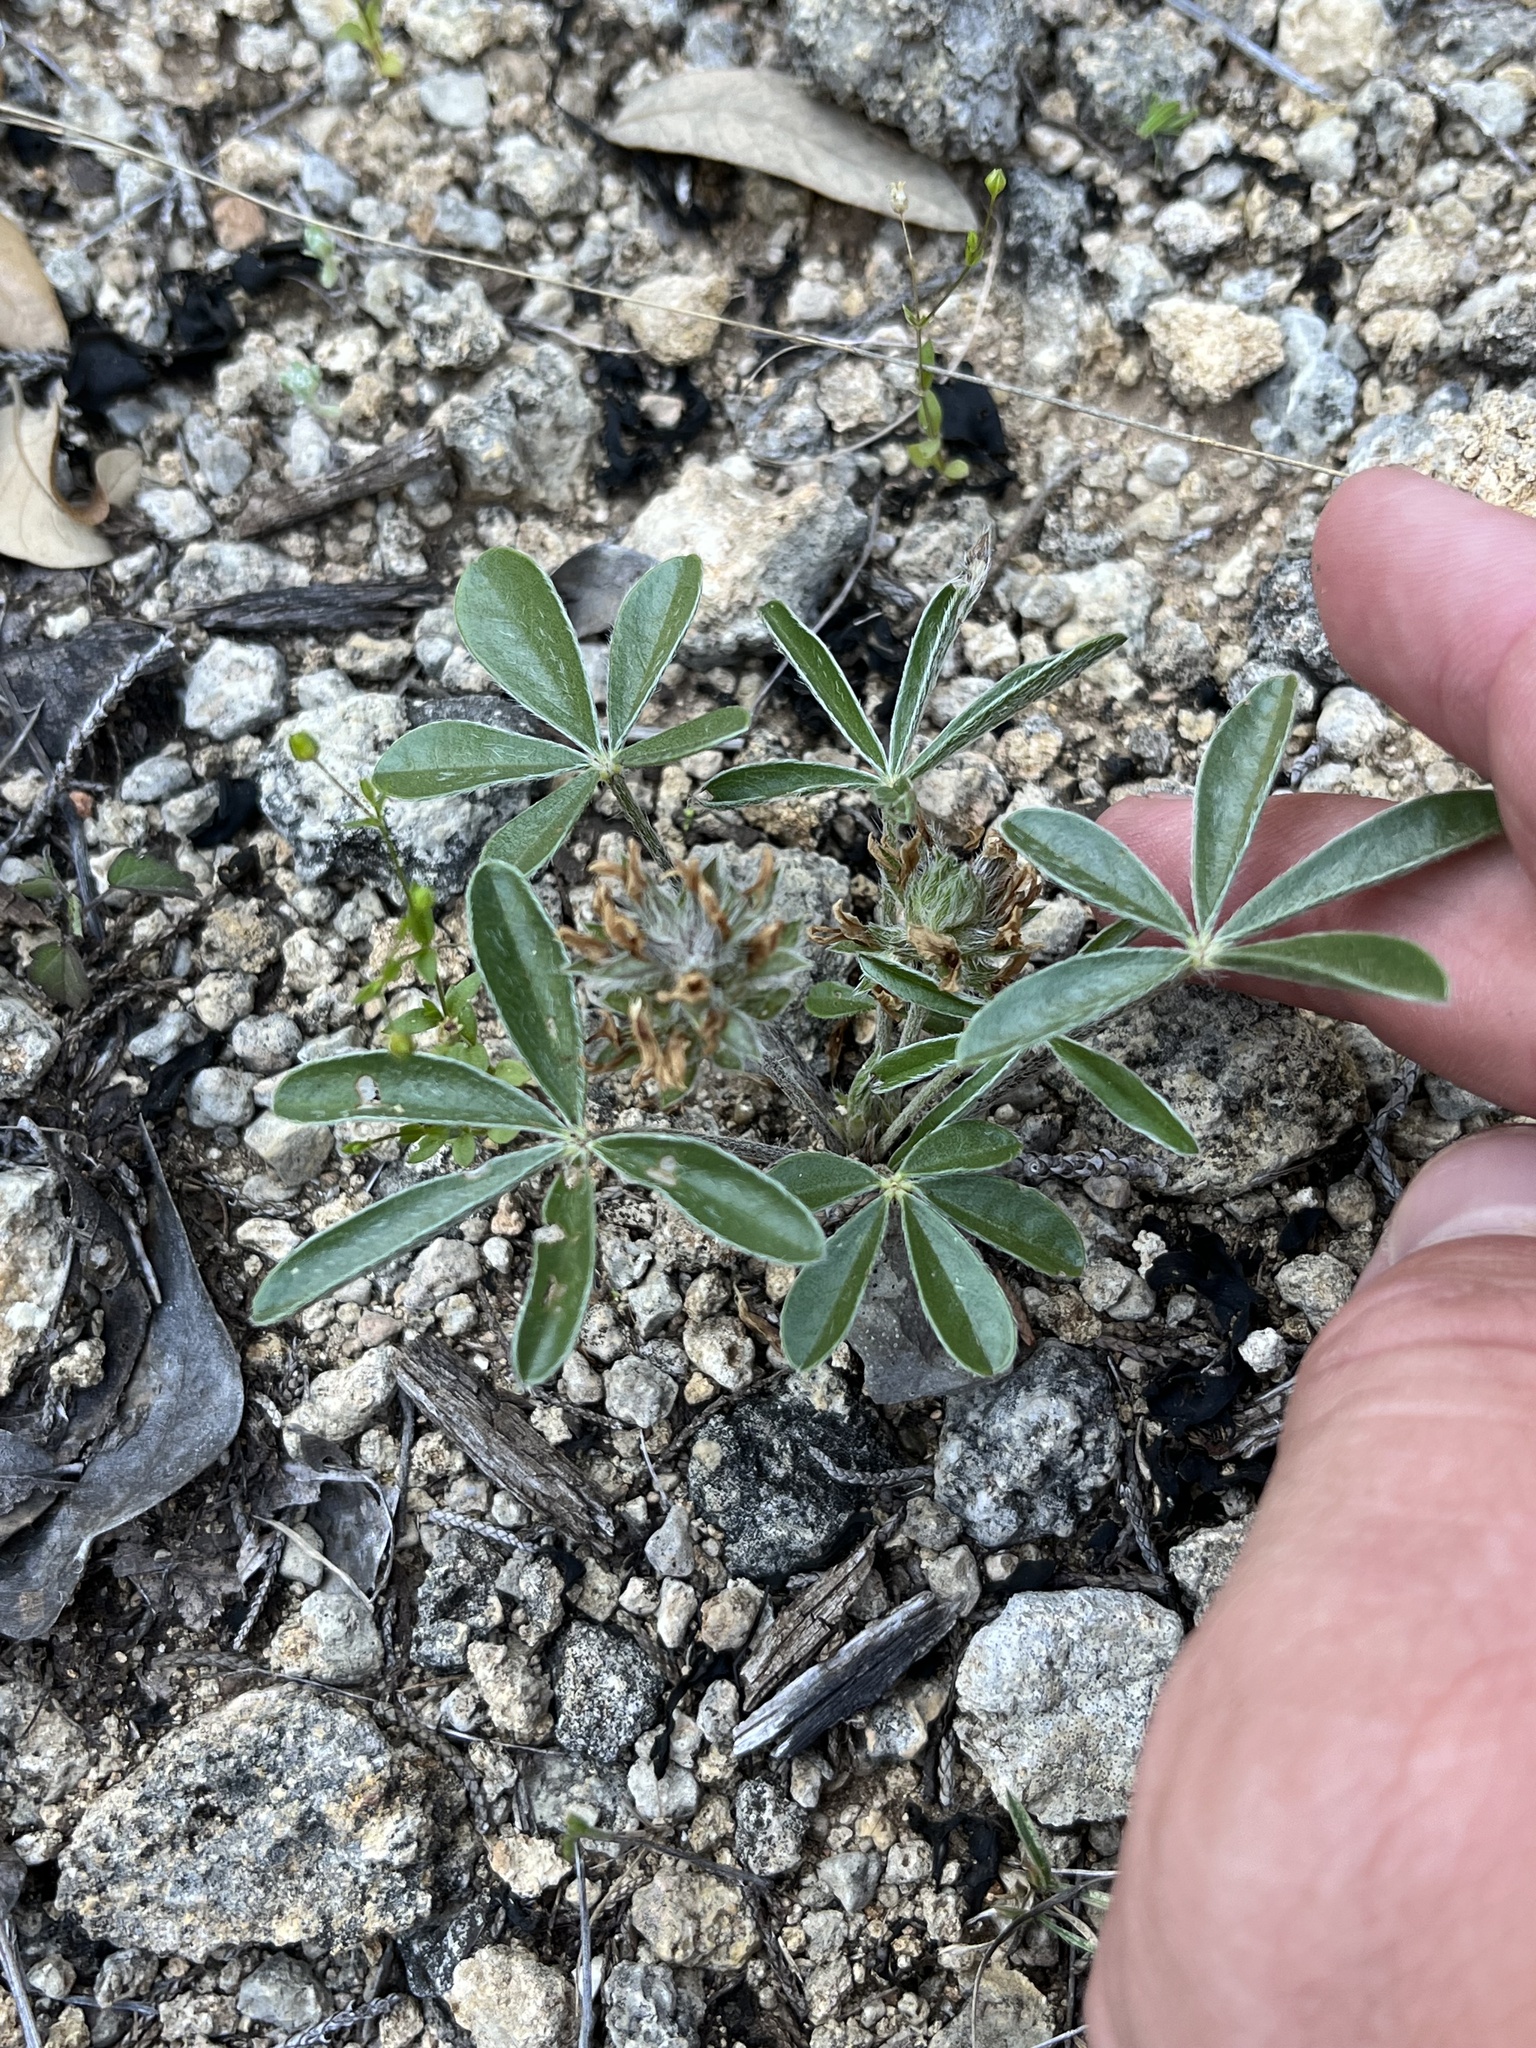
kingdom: Plantae
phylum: Tracheophyta
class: Magnoliopsida
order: Fabales
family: Fabaceae
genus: Pediomelum
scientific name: Pediomelum hypogaeum
